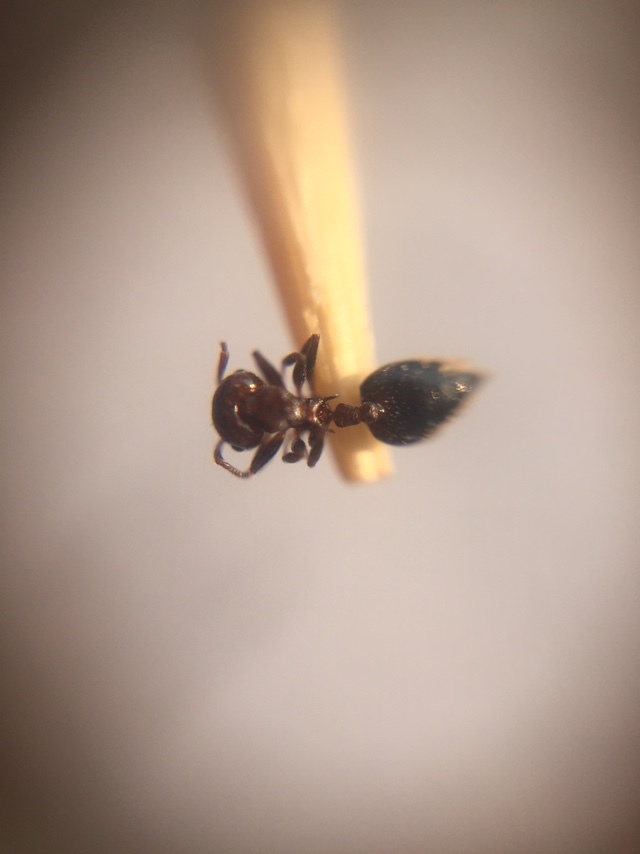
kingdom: Animalia
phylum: Arthropoda
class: Insecta
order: Hymenoptera
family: Formicidae
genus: Crematogaster
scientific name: Crematogaster subnuda
